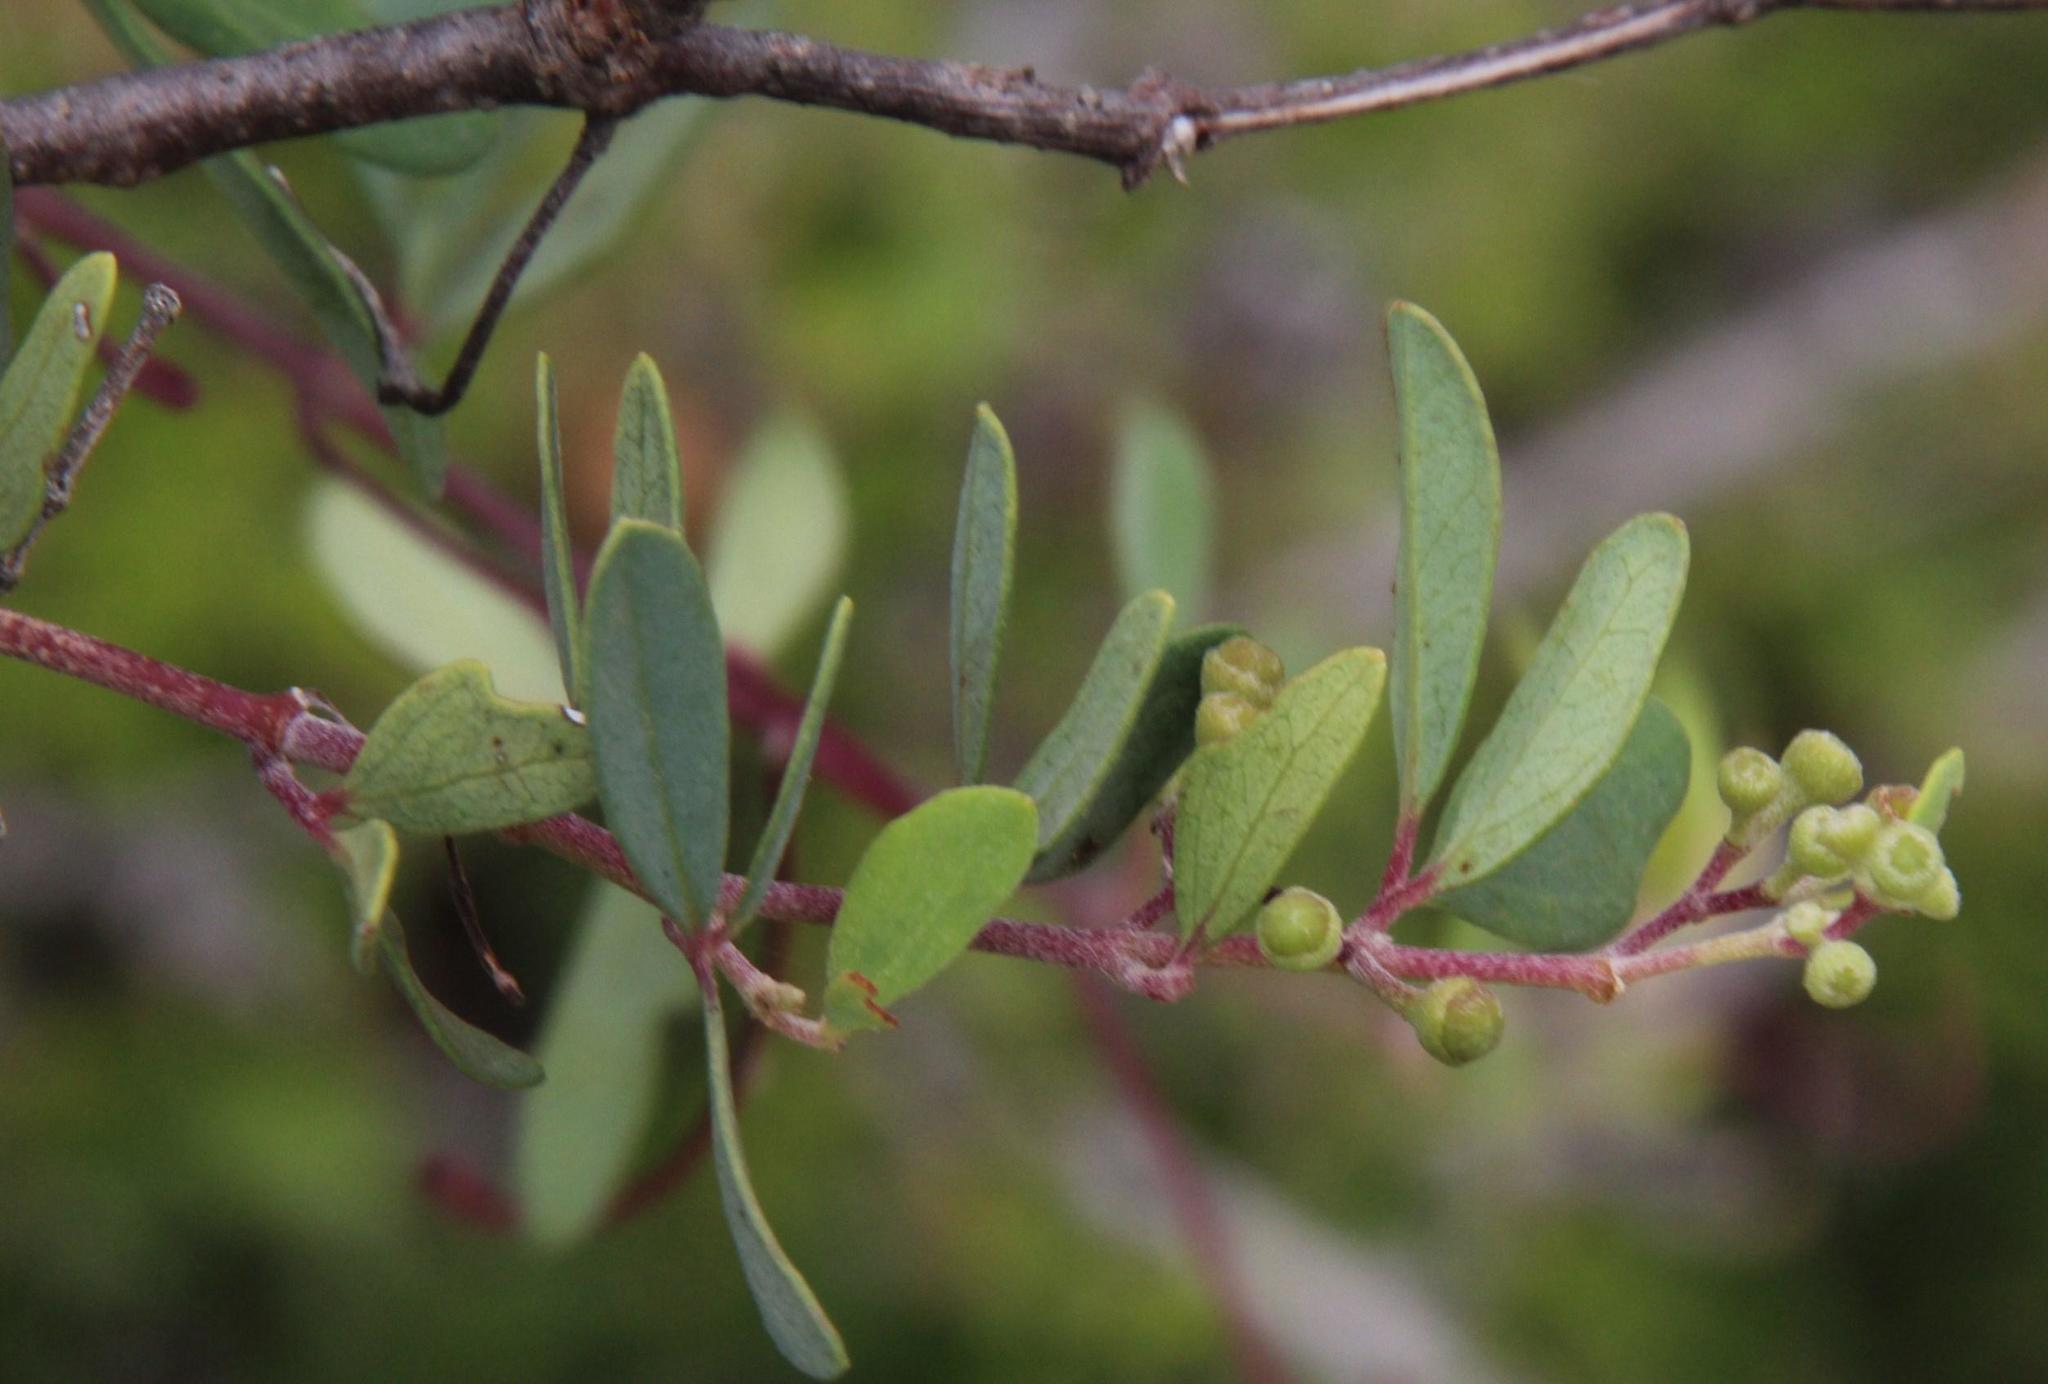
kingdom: Plantae
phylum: Tracheophyta
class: Magnoliopsida
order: Vitales
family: Vitaceae
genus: Rhoicissus
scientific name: Rhoicissus tridentata
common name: Common forest grape
